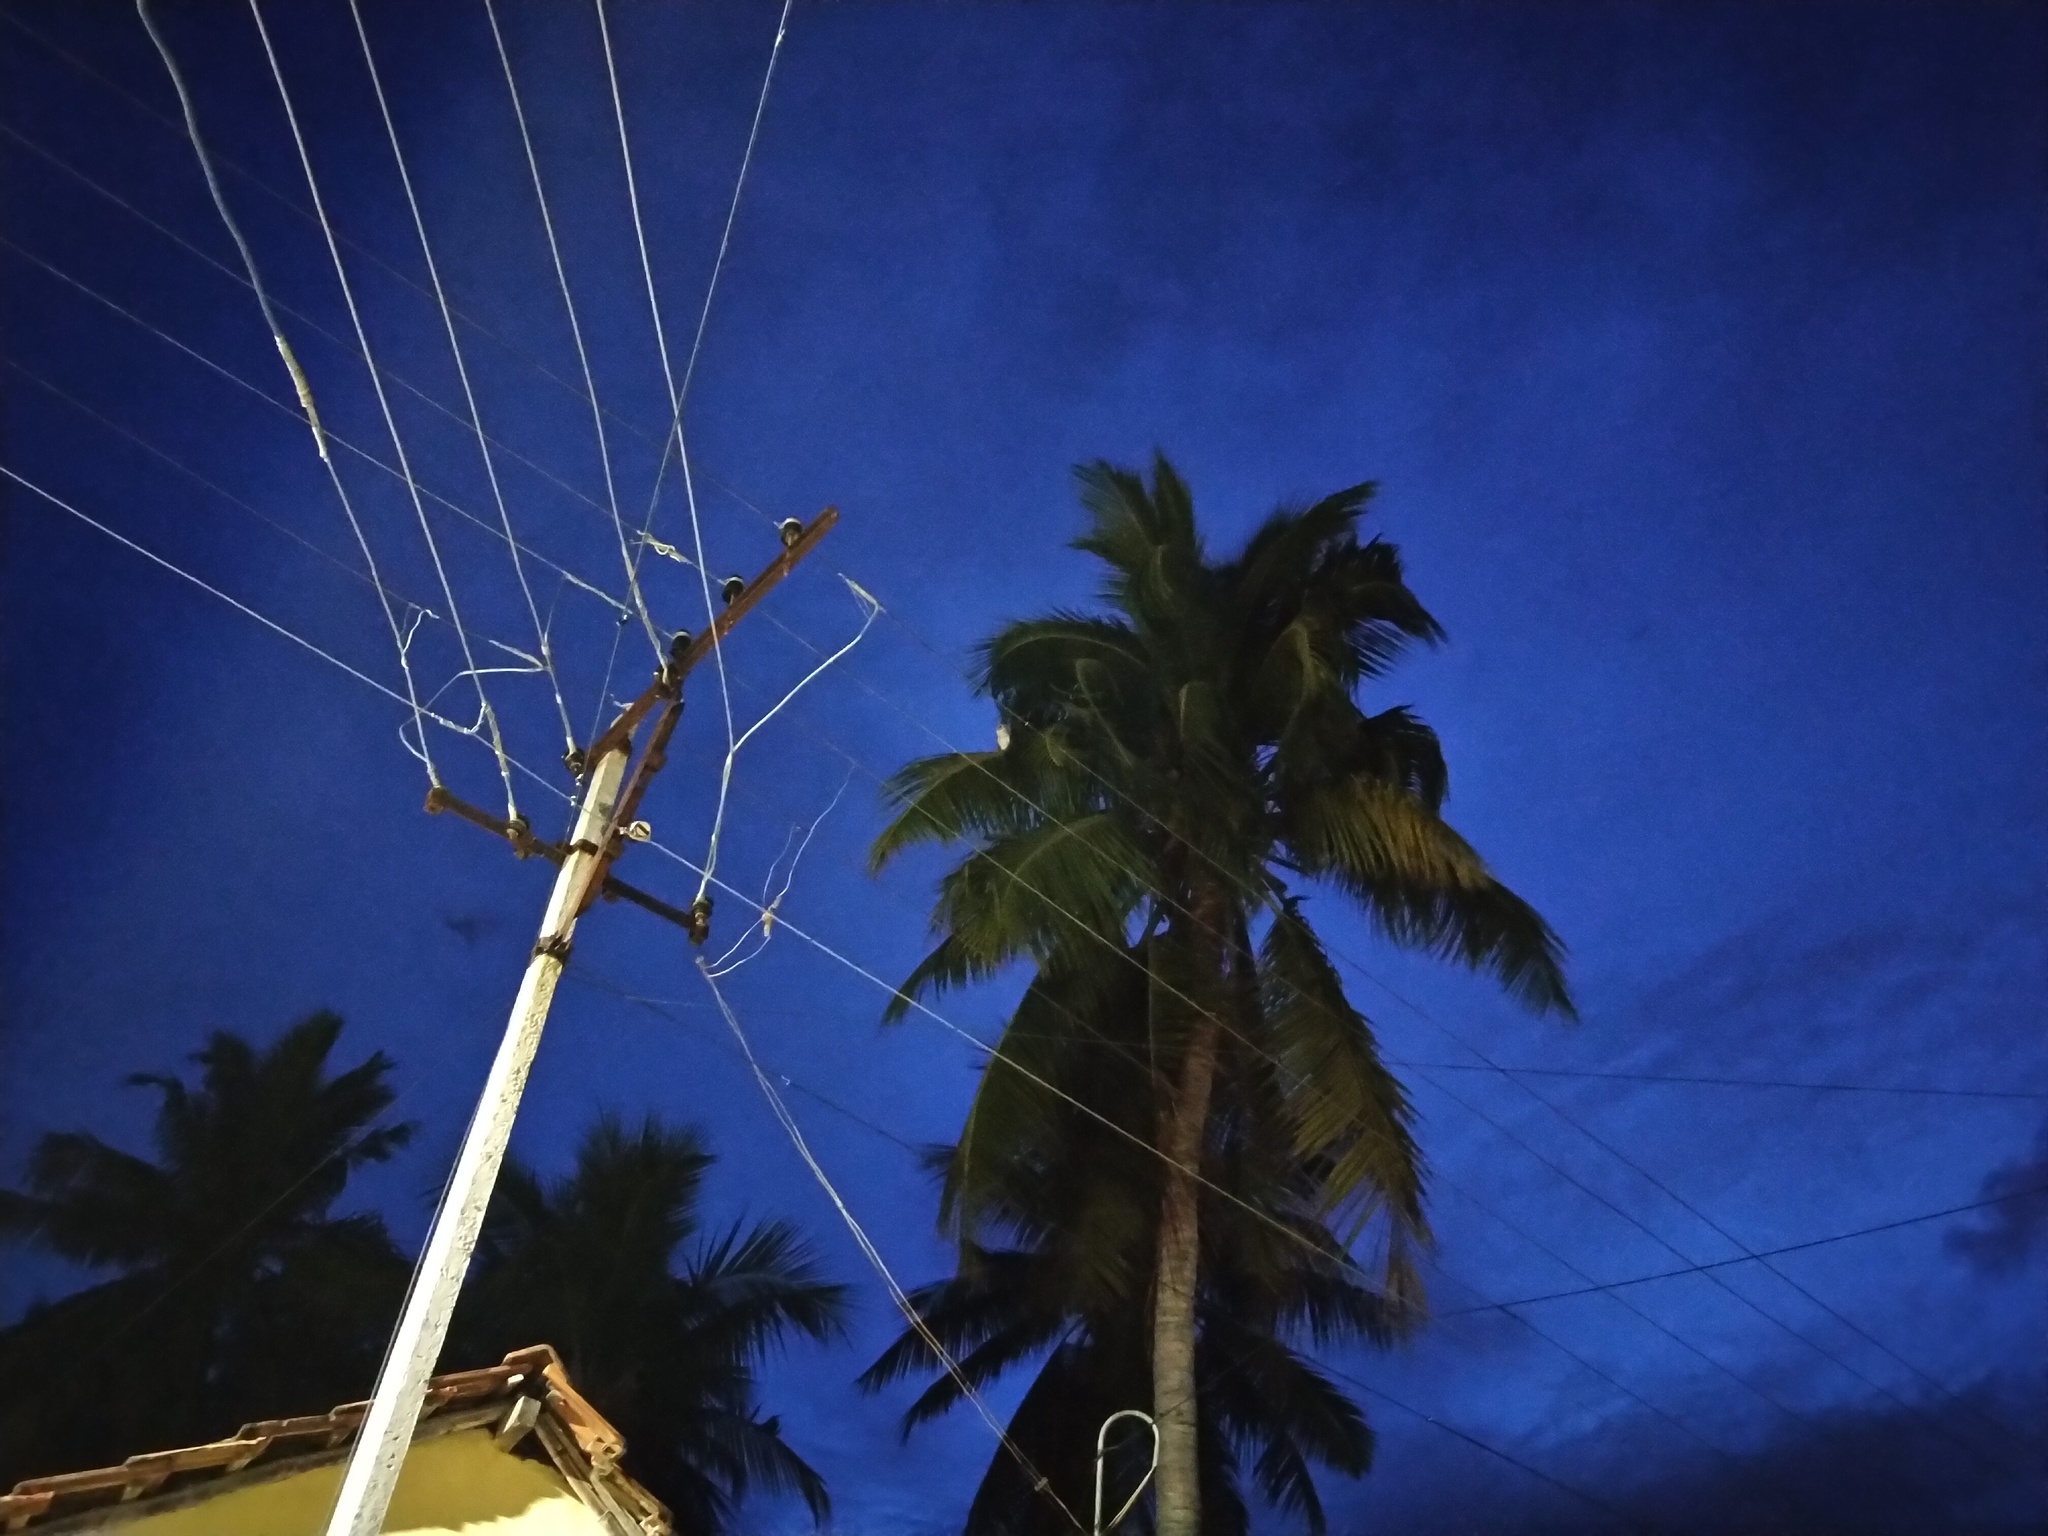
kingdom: Animalia
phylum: Chordata
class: Aves
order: Strigiformes
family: Tytonidae
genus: Tyto
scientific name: Tyto alba
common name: Barn owl
